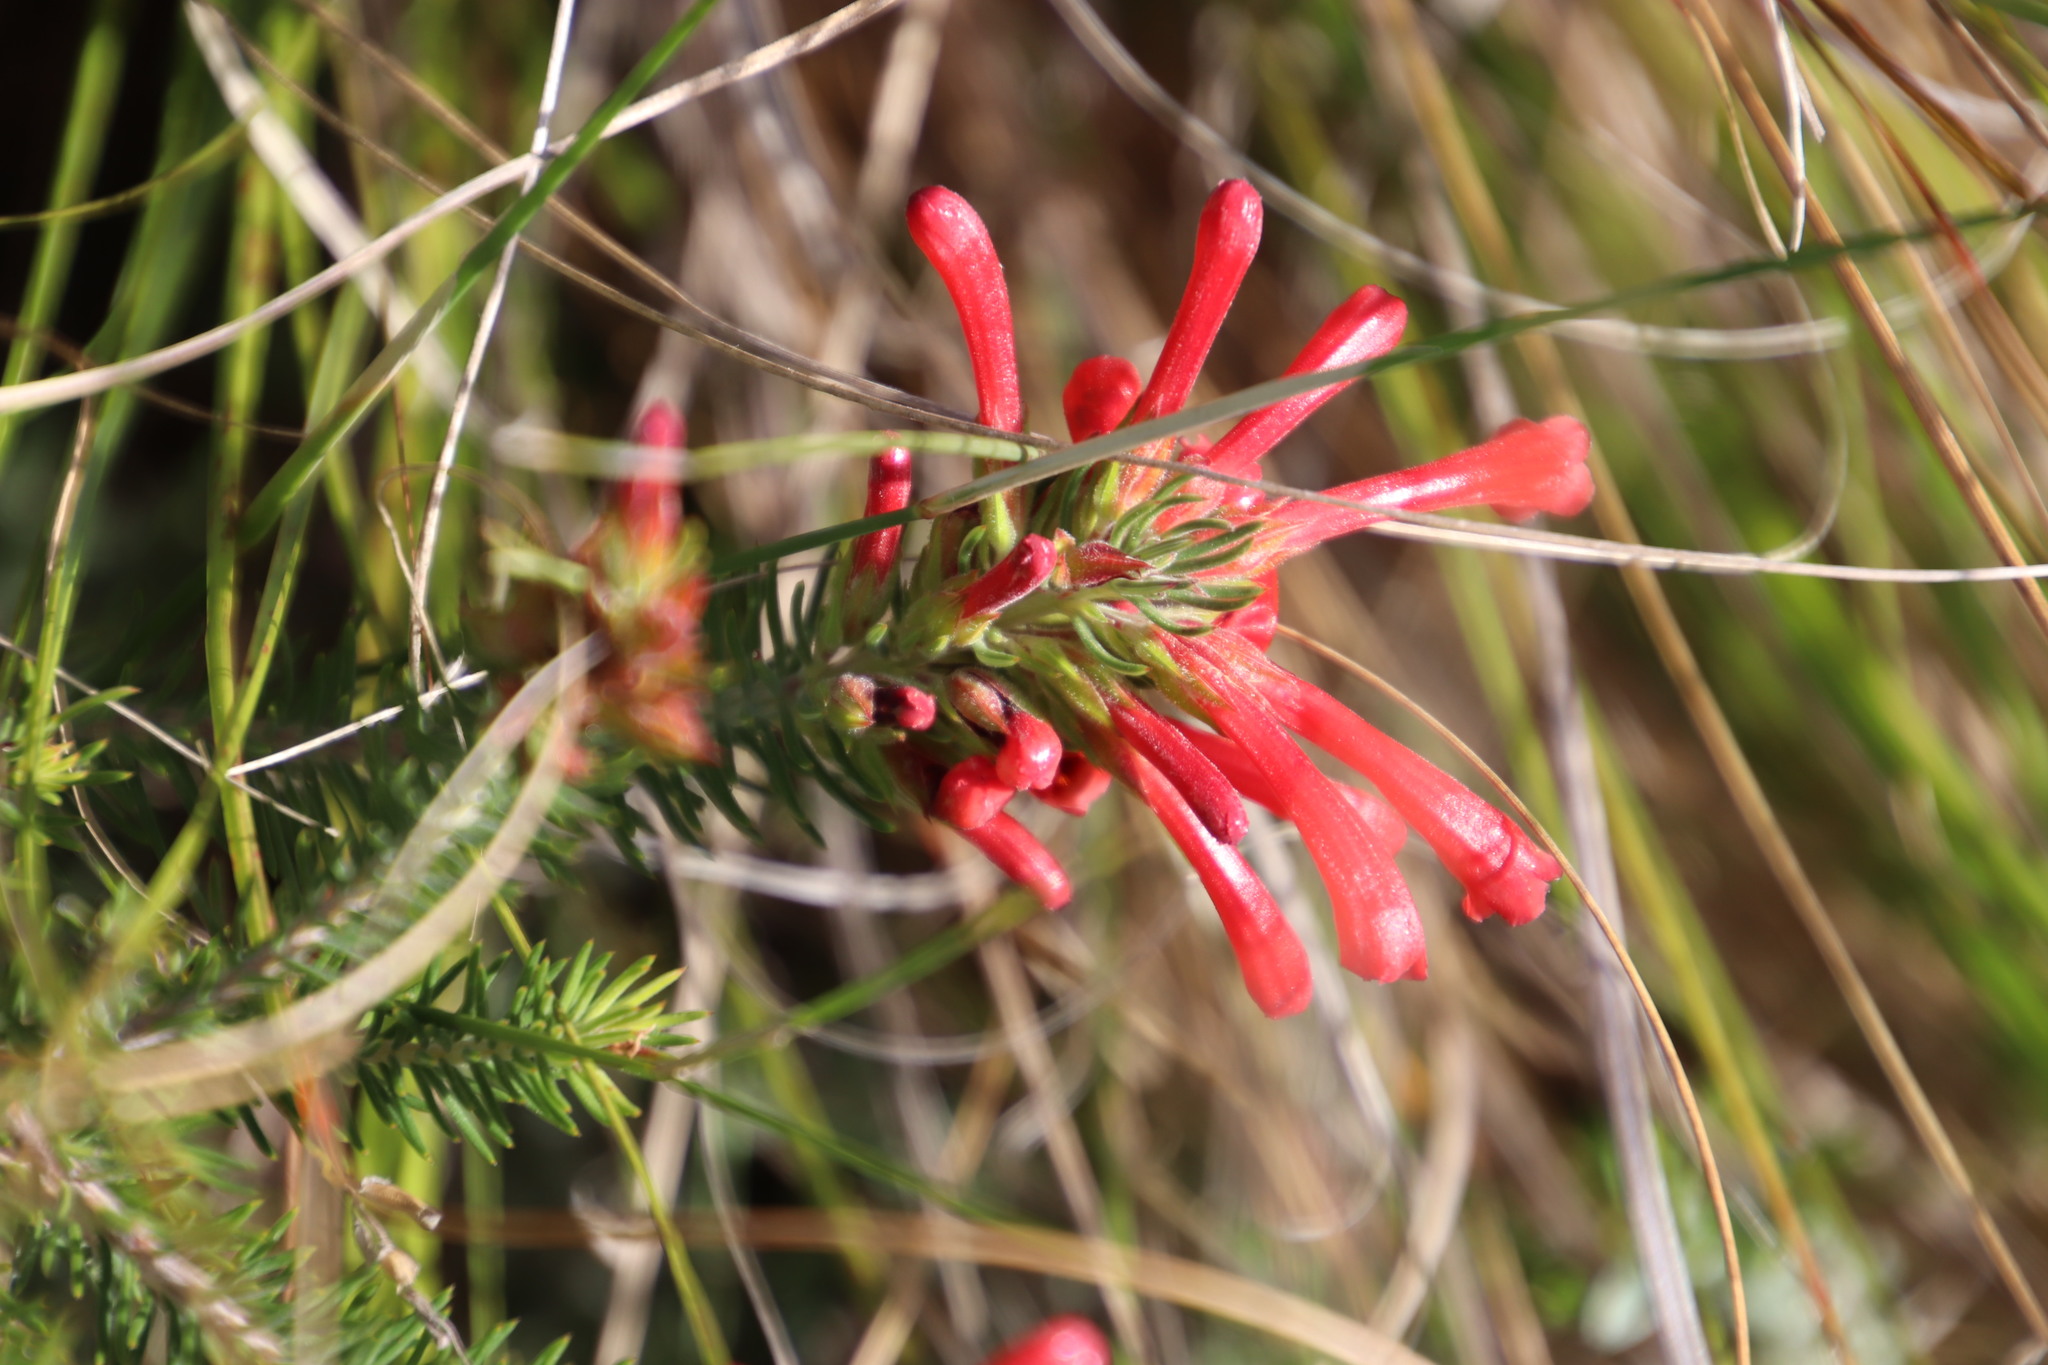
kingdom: Plantae
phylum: Tracheophyta
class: Magnoliopsida
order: Ericales
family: Ericaceae
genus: Erica
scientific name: Erica abietina
